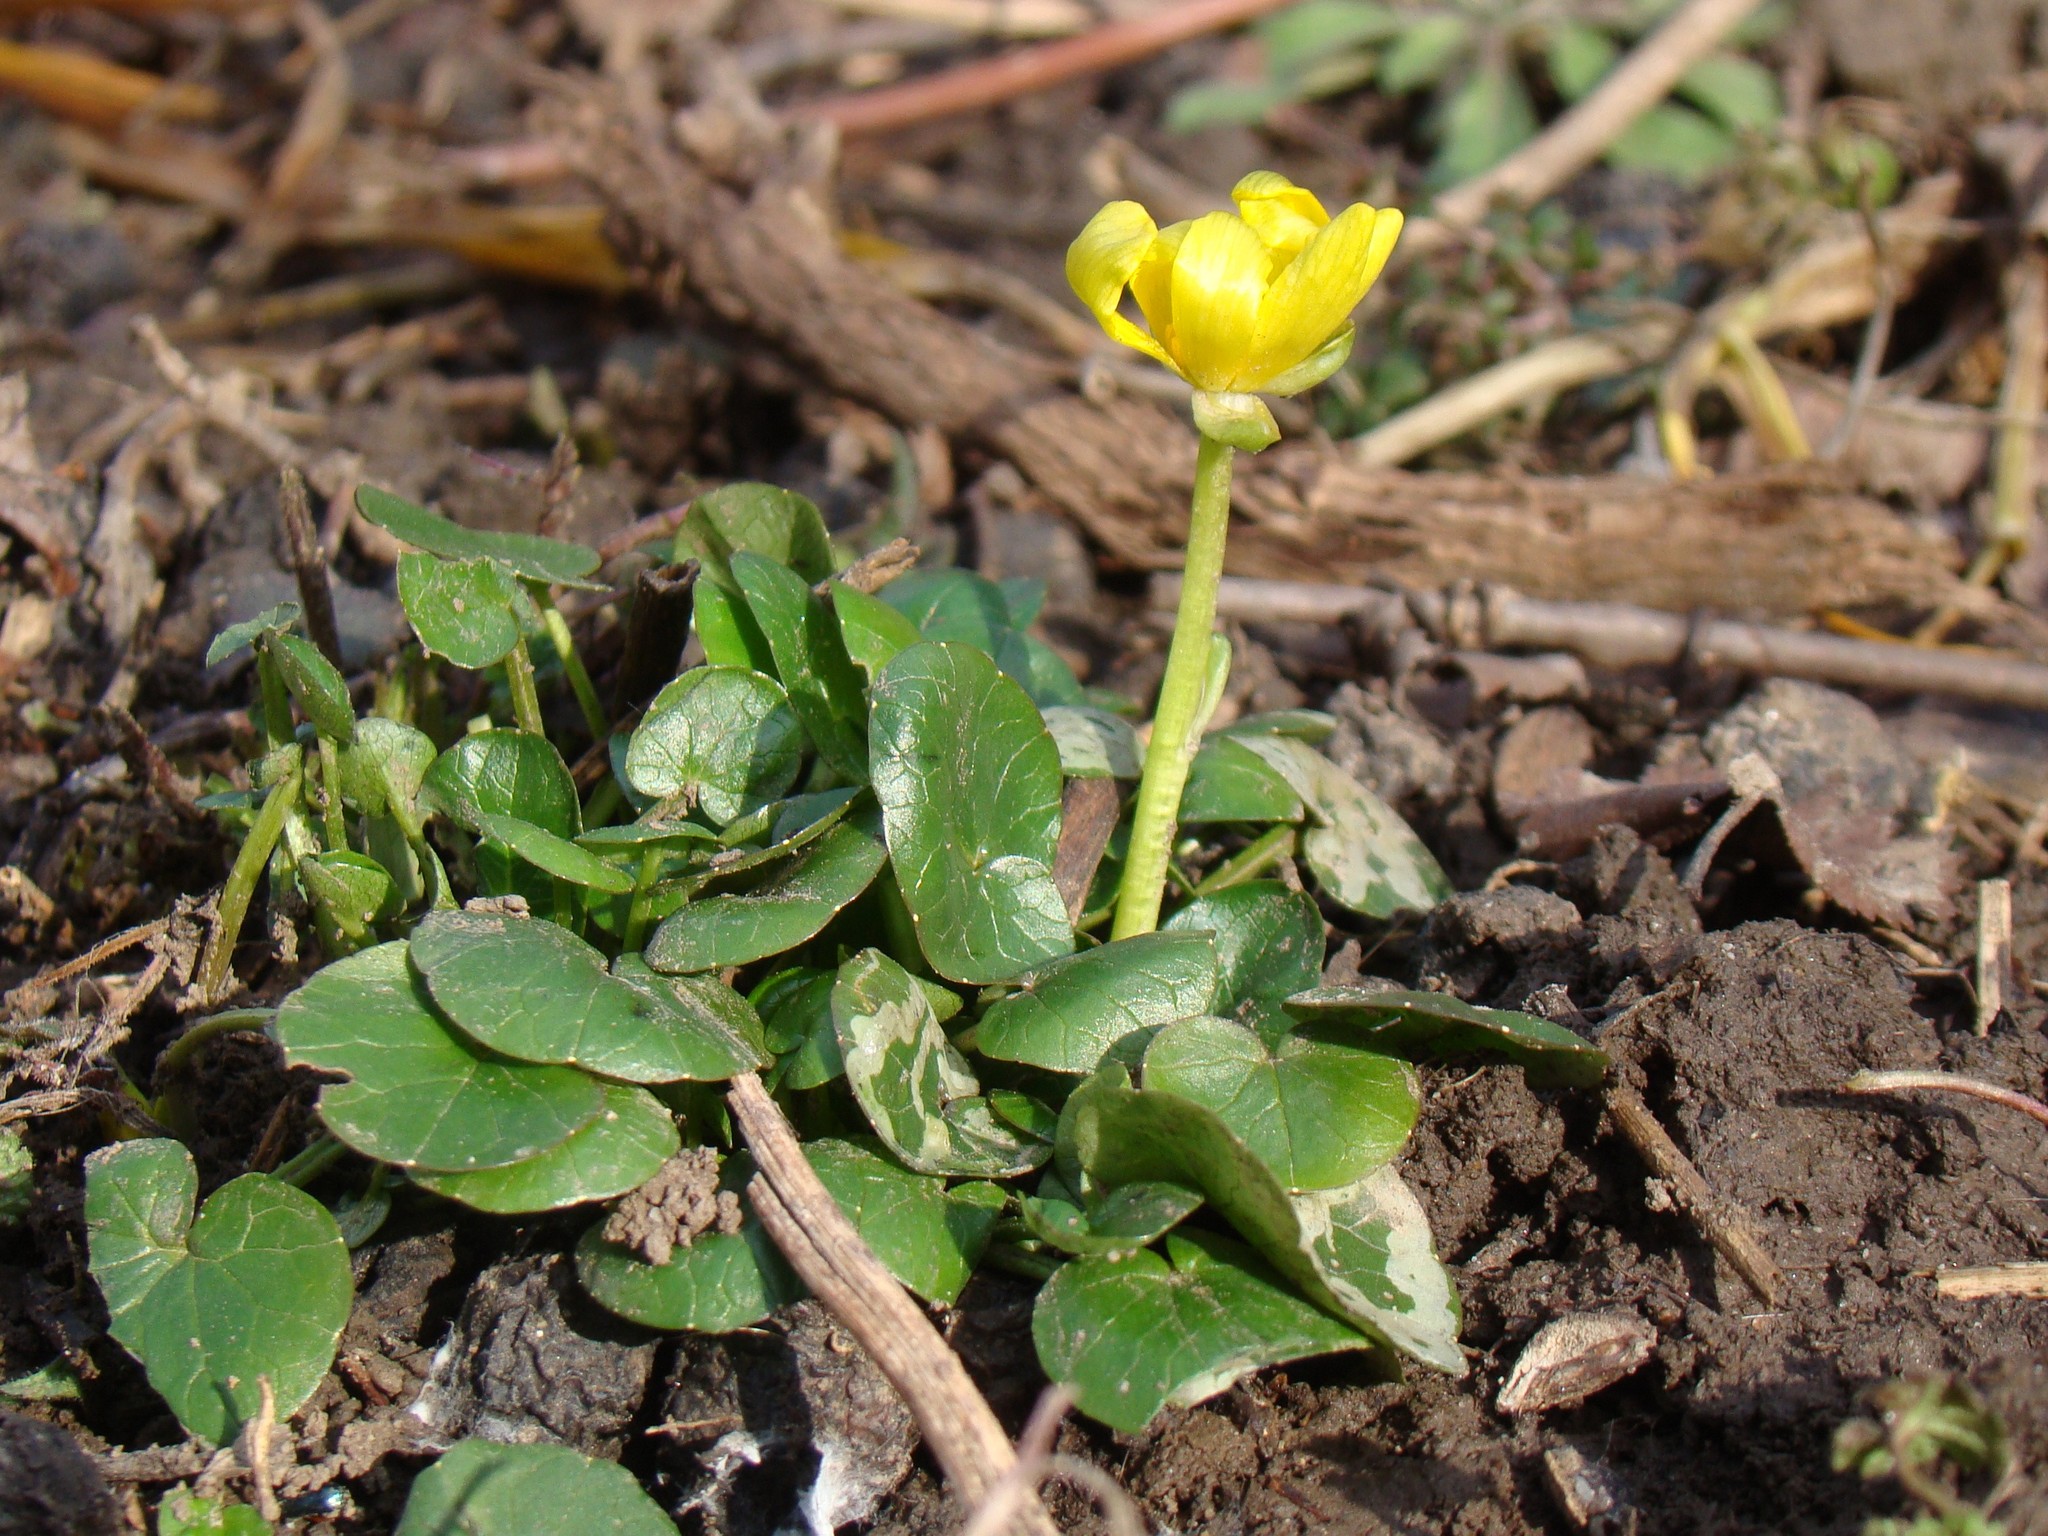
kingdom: Plantae
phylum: Tracheophyta
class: Magnoliopsida
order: Ranunculales
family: Ranunculaceae
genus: Ficaria
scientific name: Ficaria
